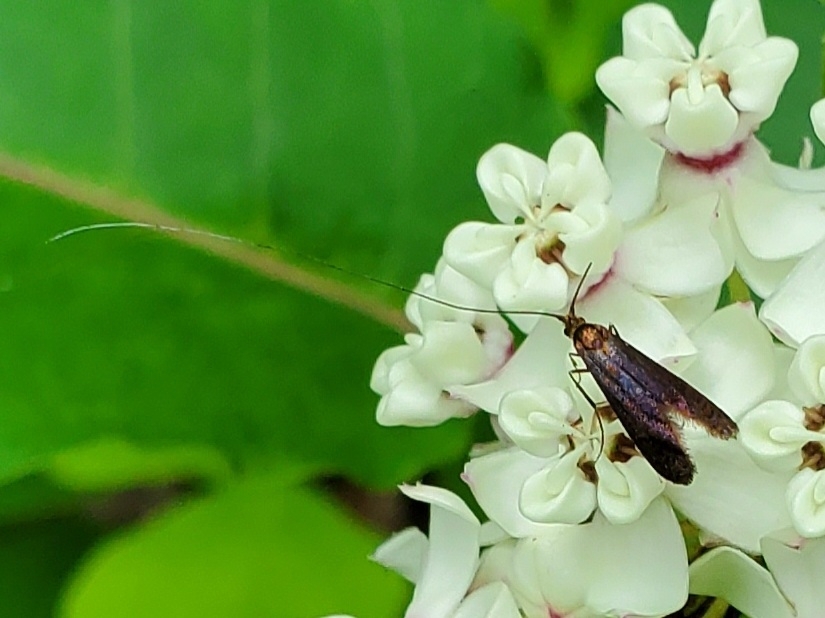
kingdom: Animalia
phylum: Arthropoda
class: Insecta
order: Lepidoptera
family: Adelidae
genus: Adela
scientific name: Adela caeruleella
